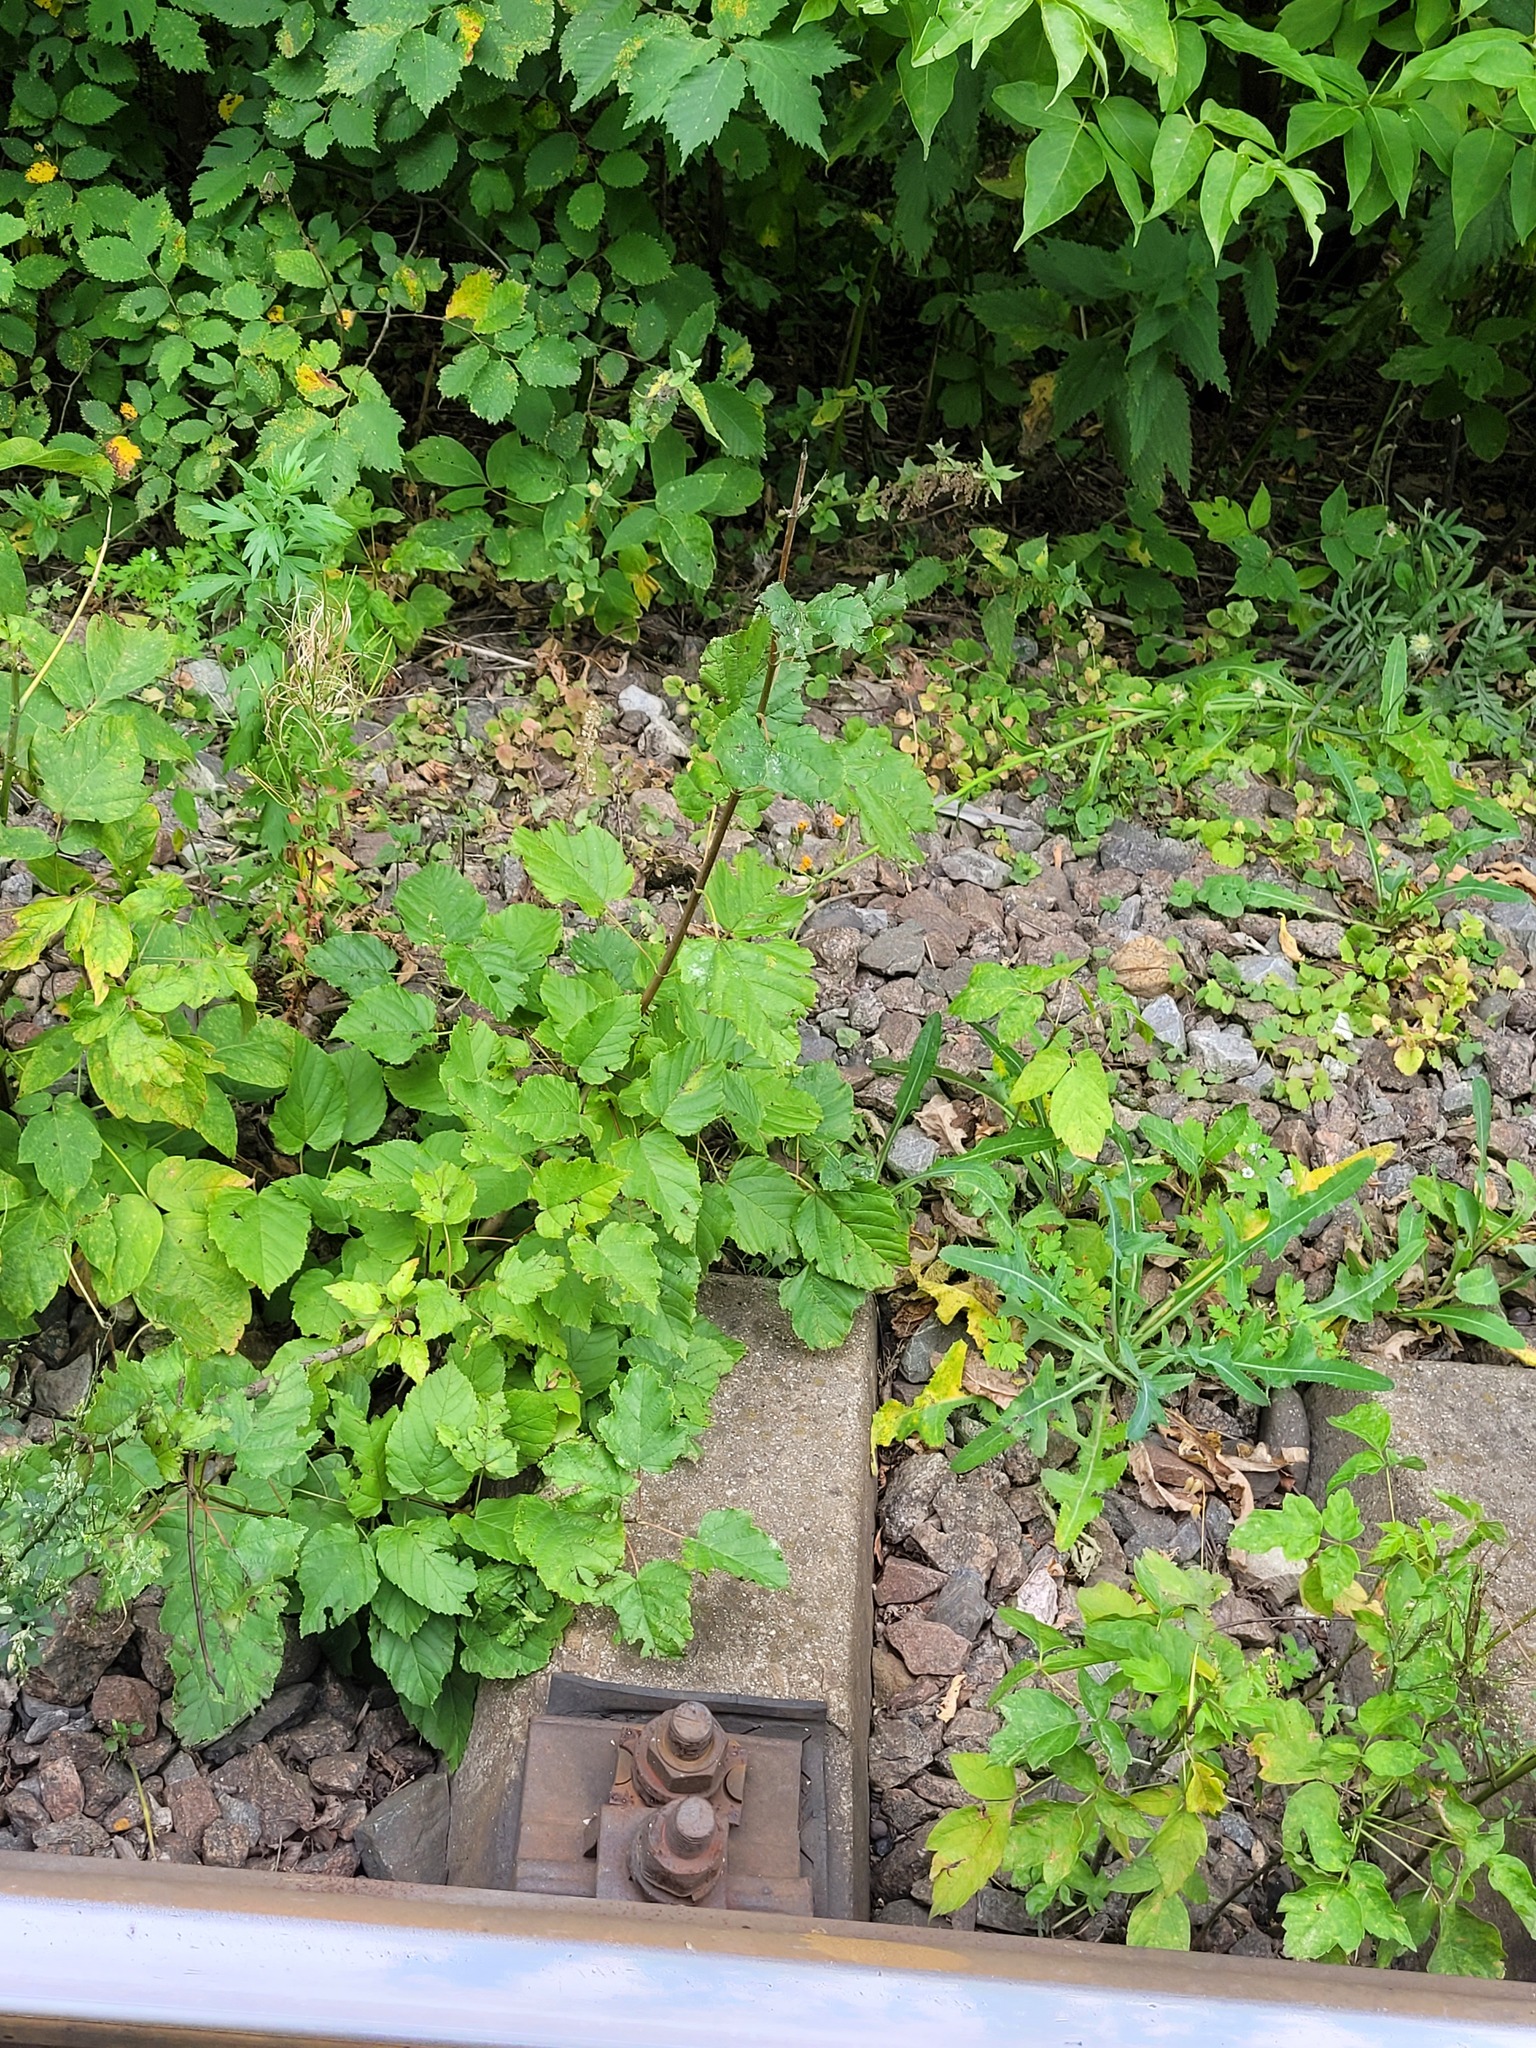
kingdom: Plantae
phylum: Tracheophyta
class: Magnoliopsida
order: Sapindales
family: Sapindaceae
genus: Acer
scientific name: Acer tataricum
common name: Tartar maple
